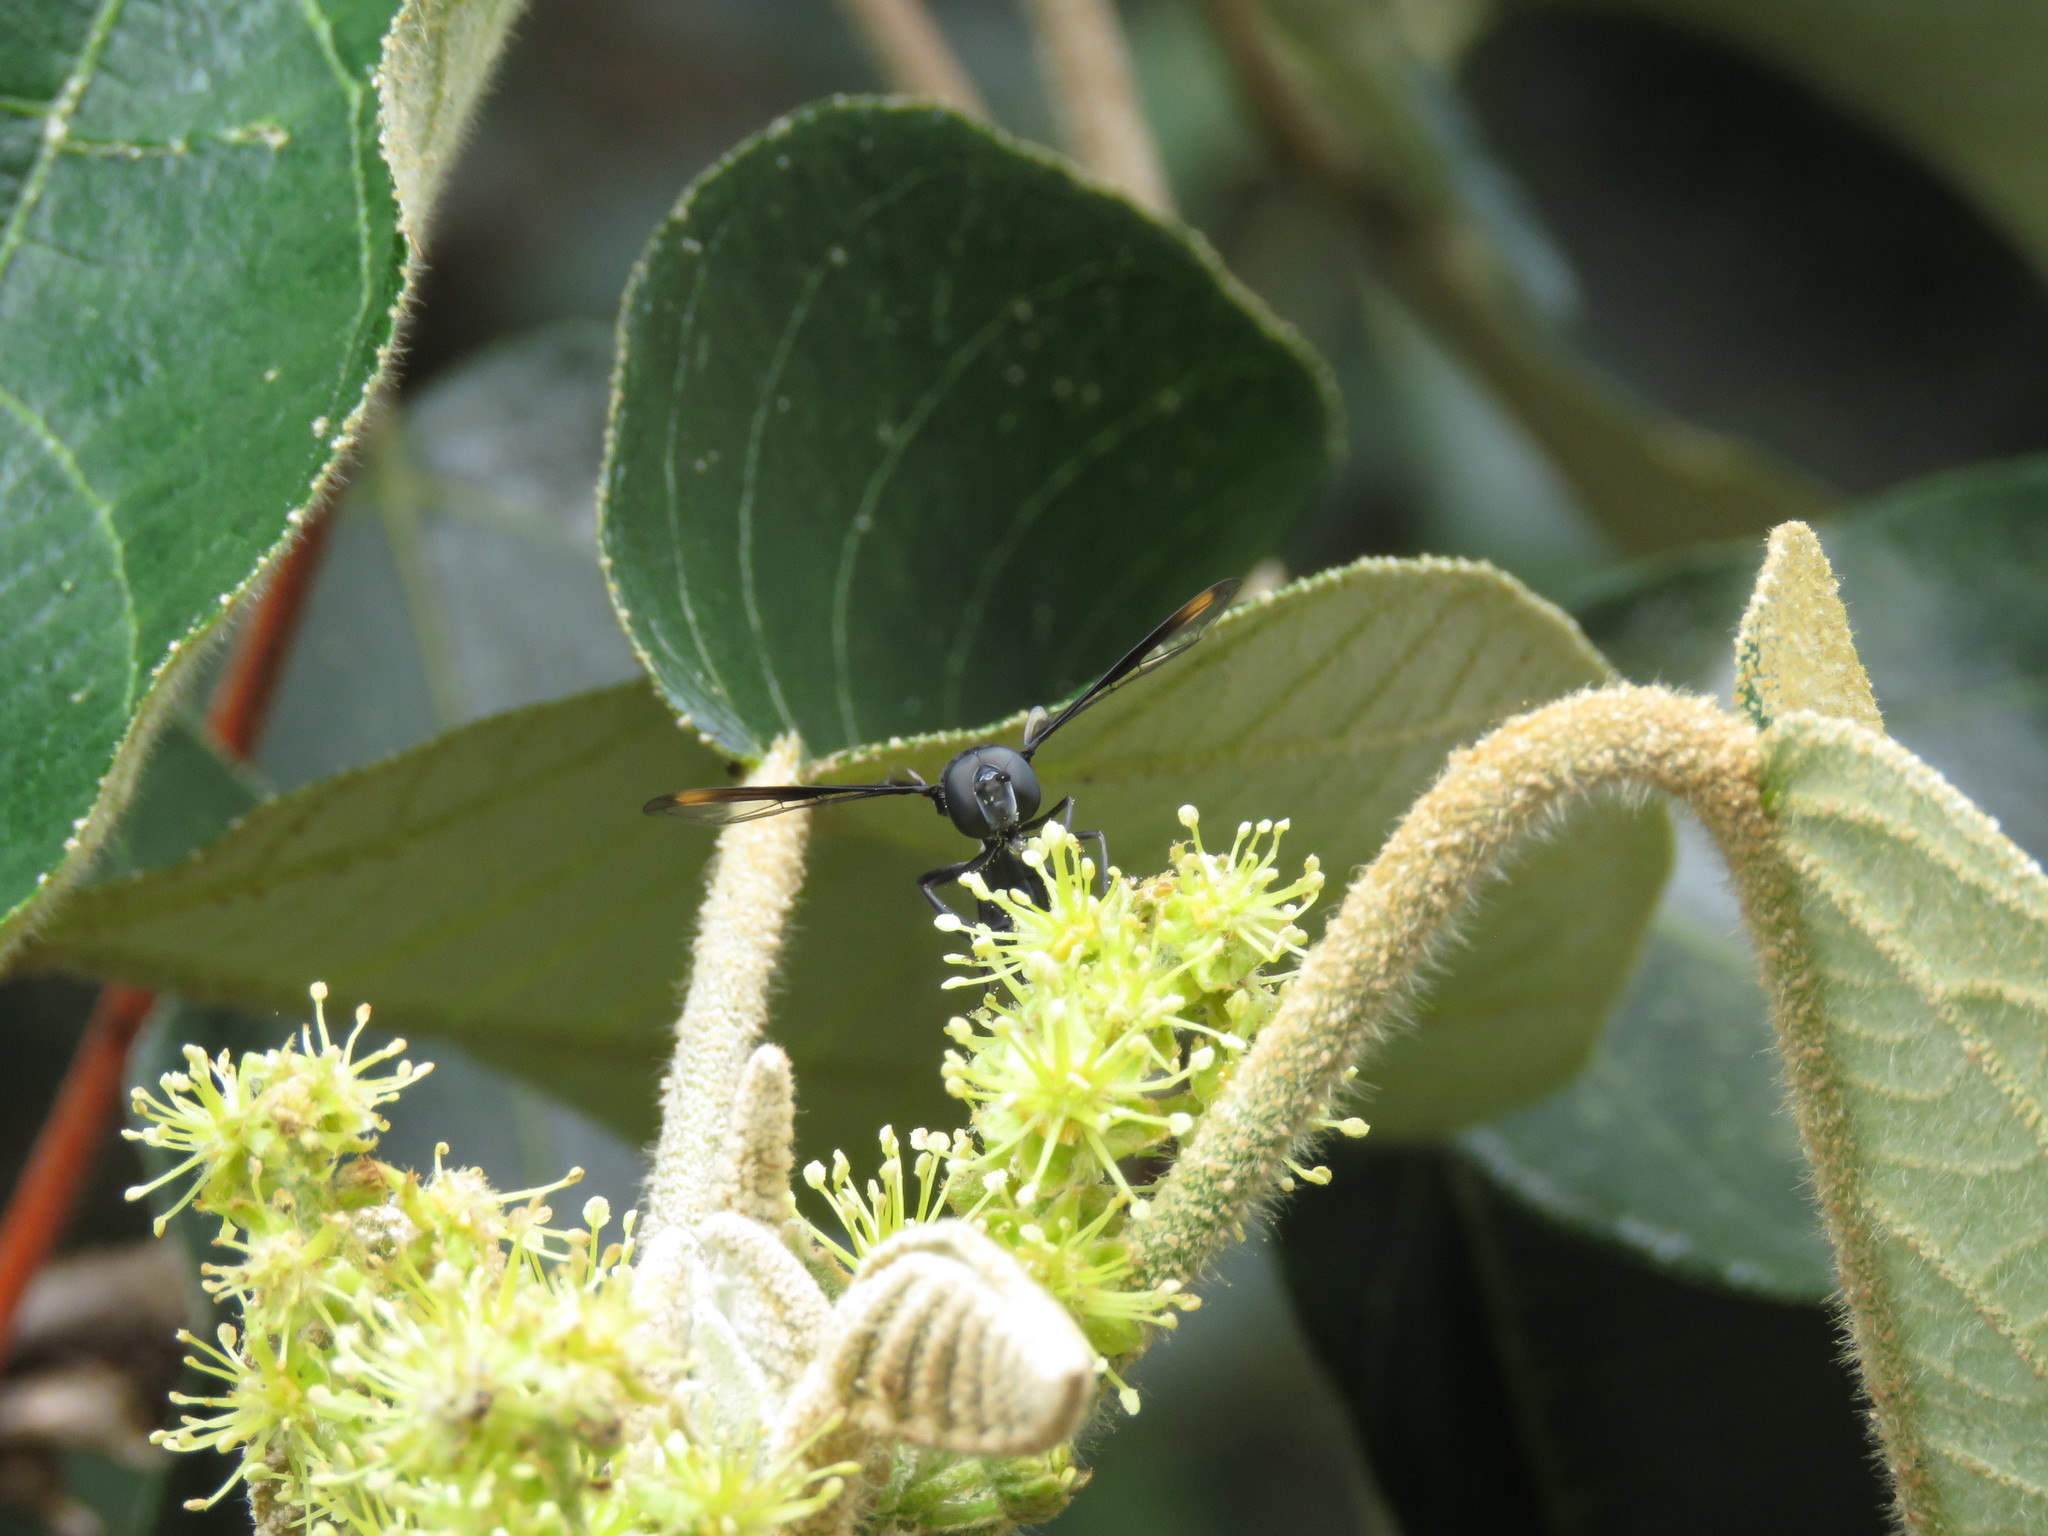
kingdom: Animalia
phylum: Arthropoda
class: Insecta
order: Diptera
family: Syrphidae
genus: Mimocalla
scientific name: Mimocalla giganteus
